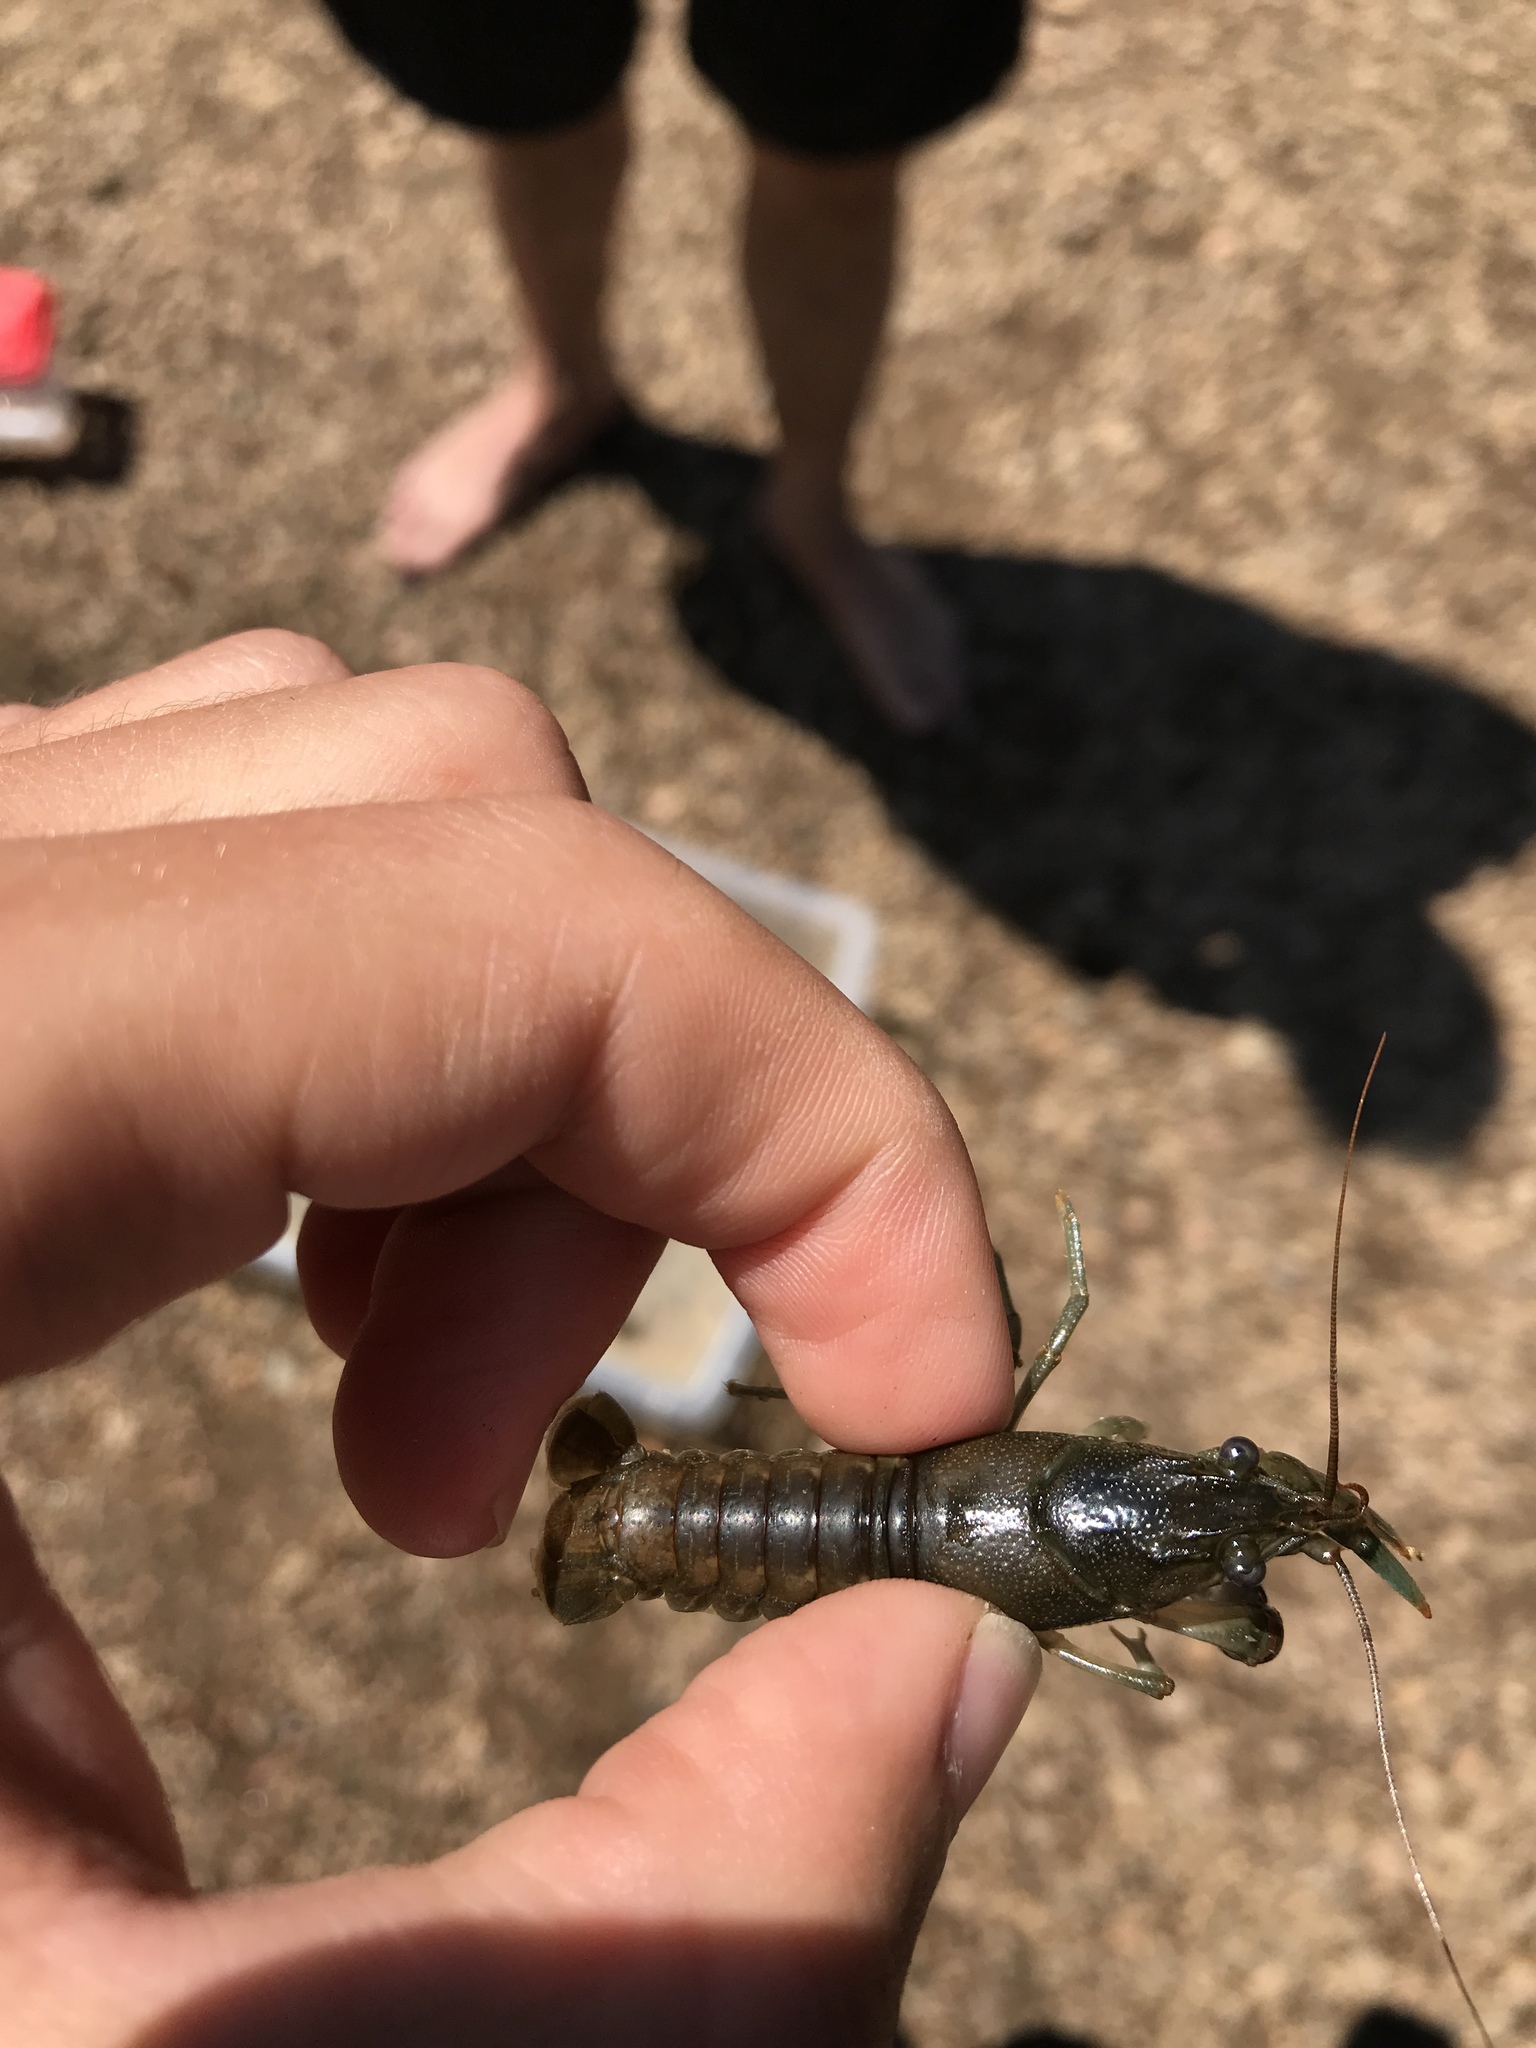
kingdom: Animalia
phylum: Arthropoda
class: Malacostraca
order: Decapoda
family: Cambaridae
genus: Faxonius
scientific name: Faxonius propinquus
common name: Northern clearwater crayfish
